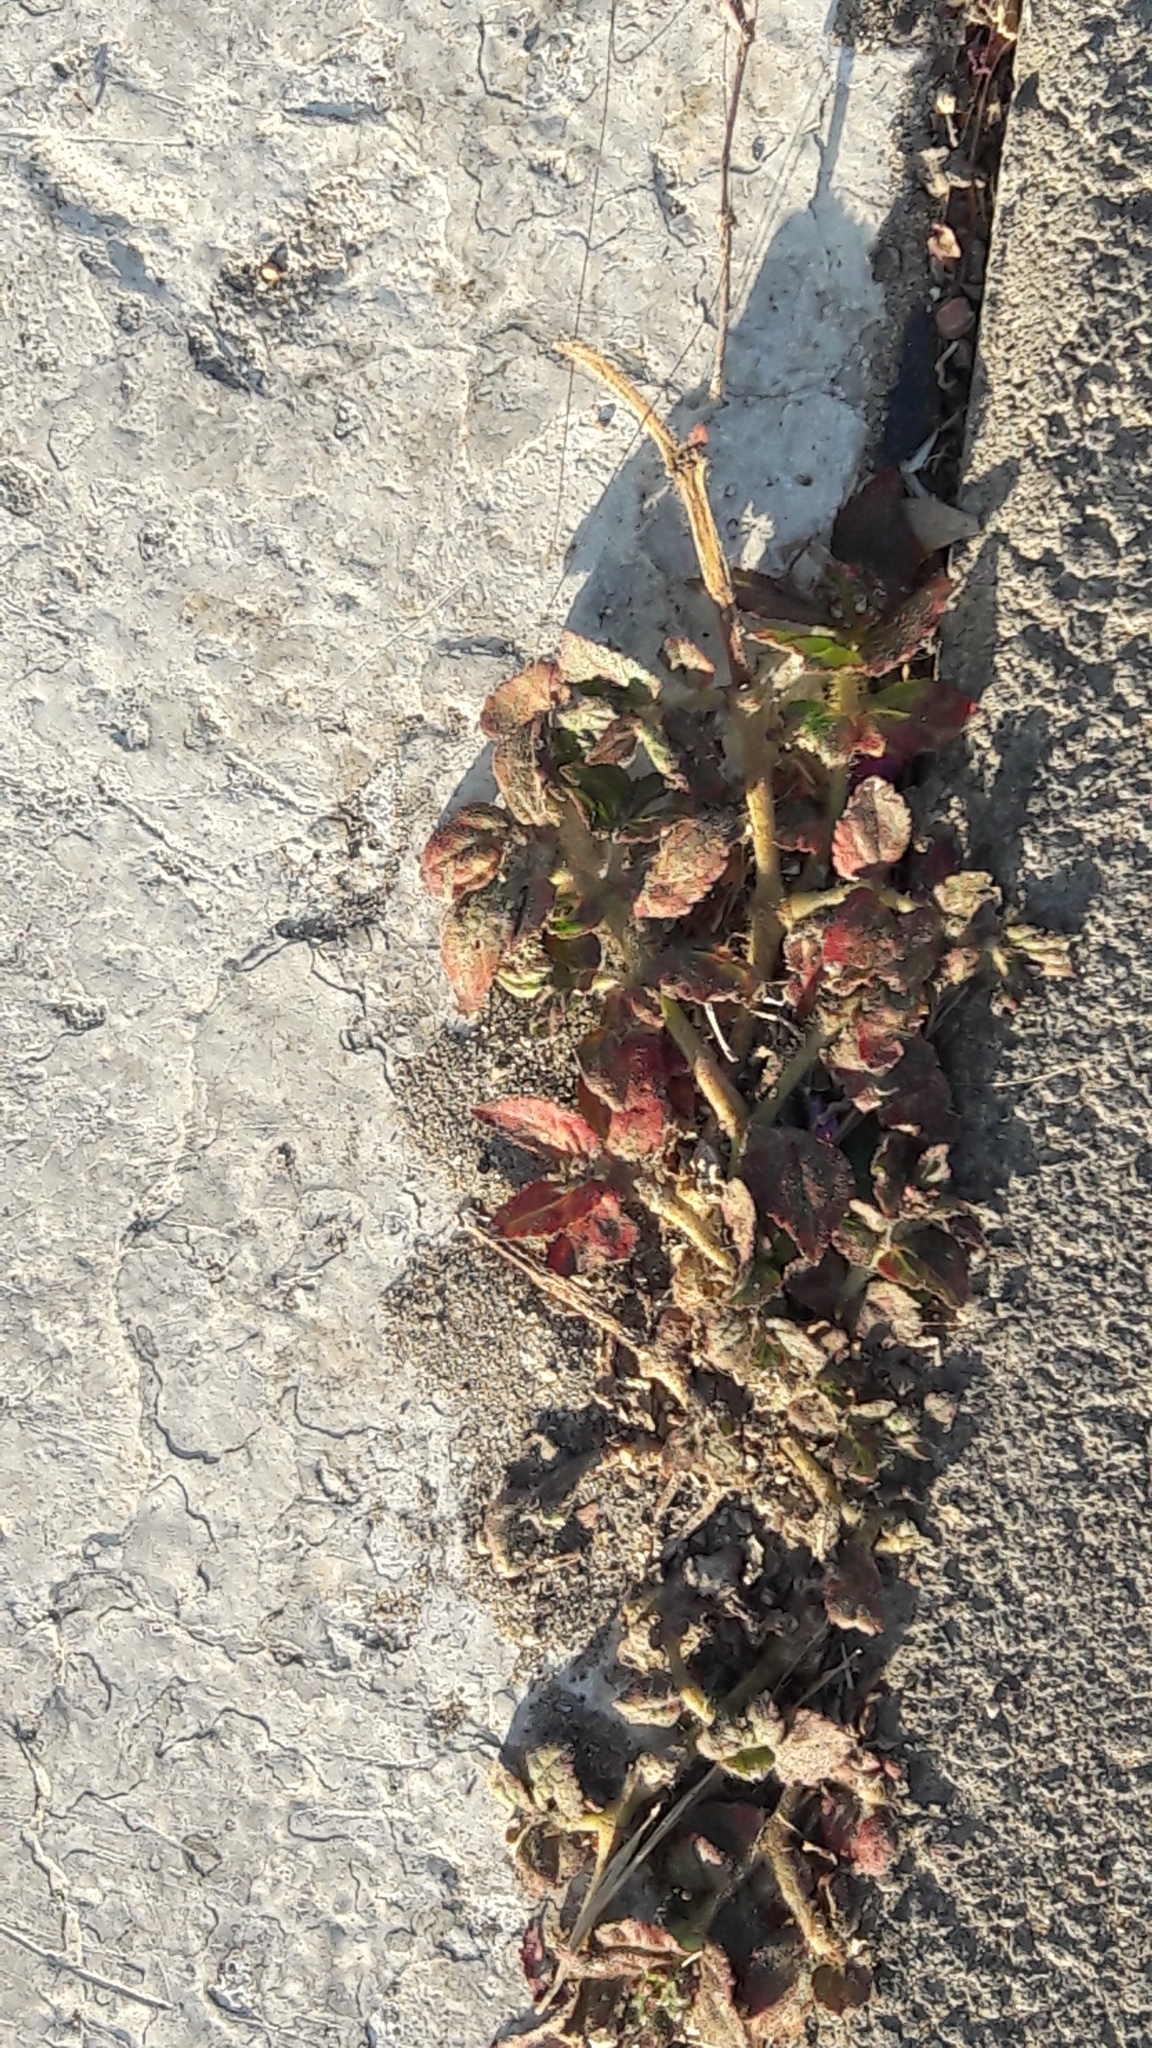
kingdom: Plantae
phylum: Tracheophyta
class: Magnoliopsida
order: Malpighiales
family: Euphorbiaceae
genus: Euphorbia
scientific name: Euphorbia hirta
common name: Pillpod sandmat
